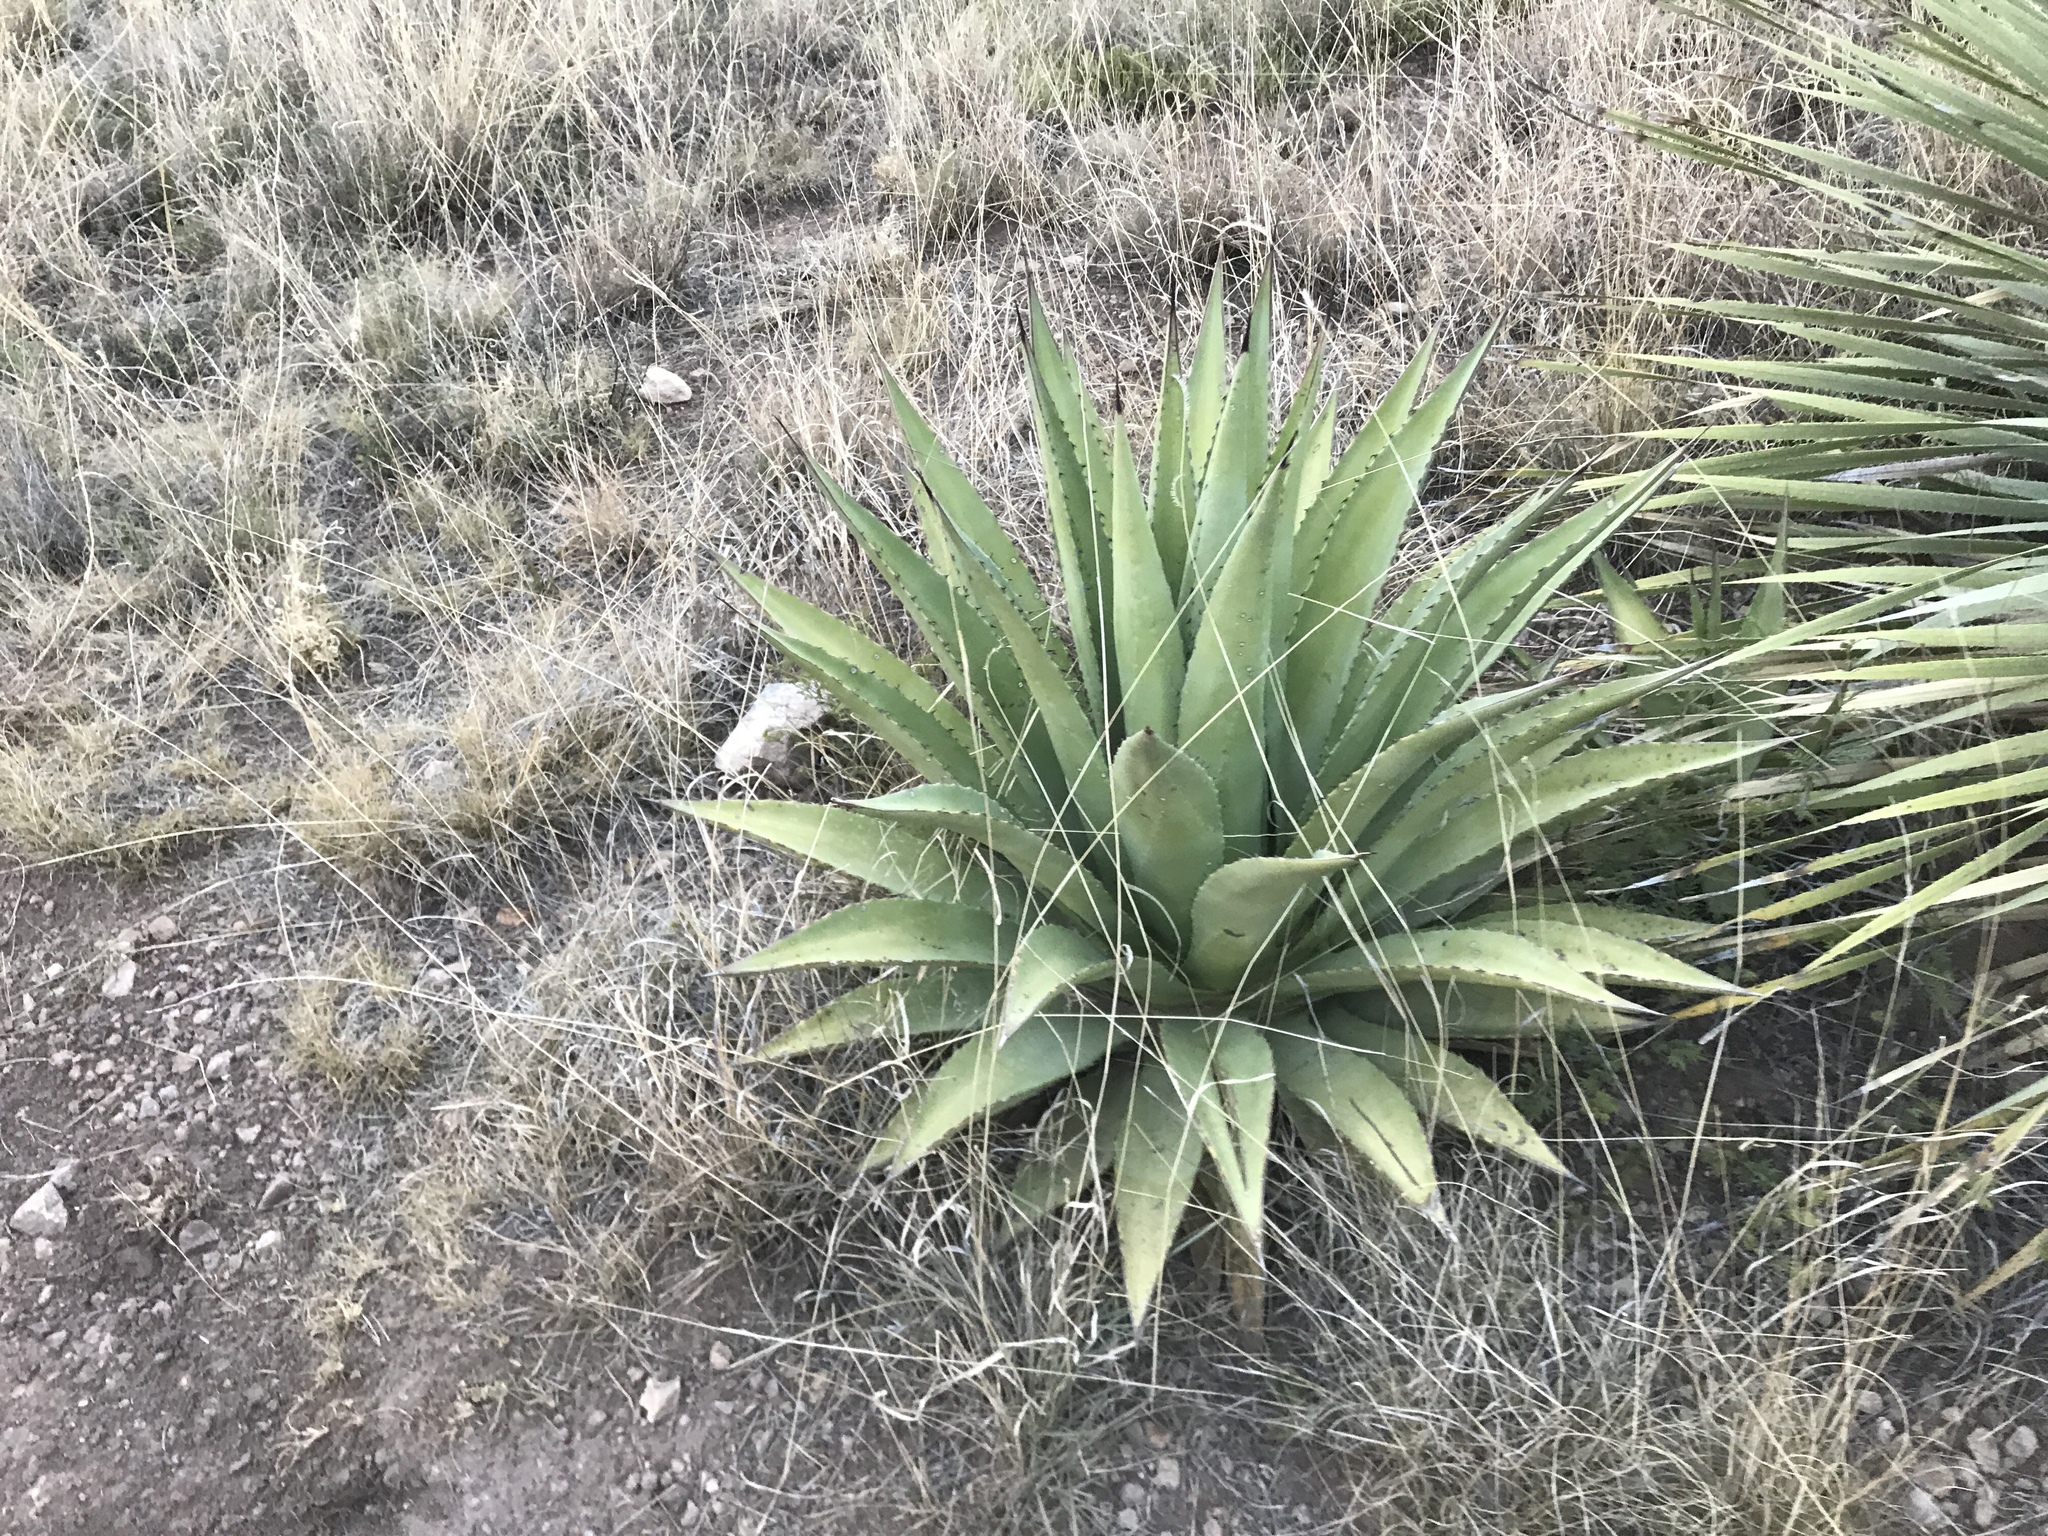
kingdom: Plantae
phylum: Tracheophyta
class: Liliopsida
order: Asparagales
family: Asparagaceae
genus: Agave
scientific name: Agave palmeri
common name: Palmer agave
